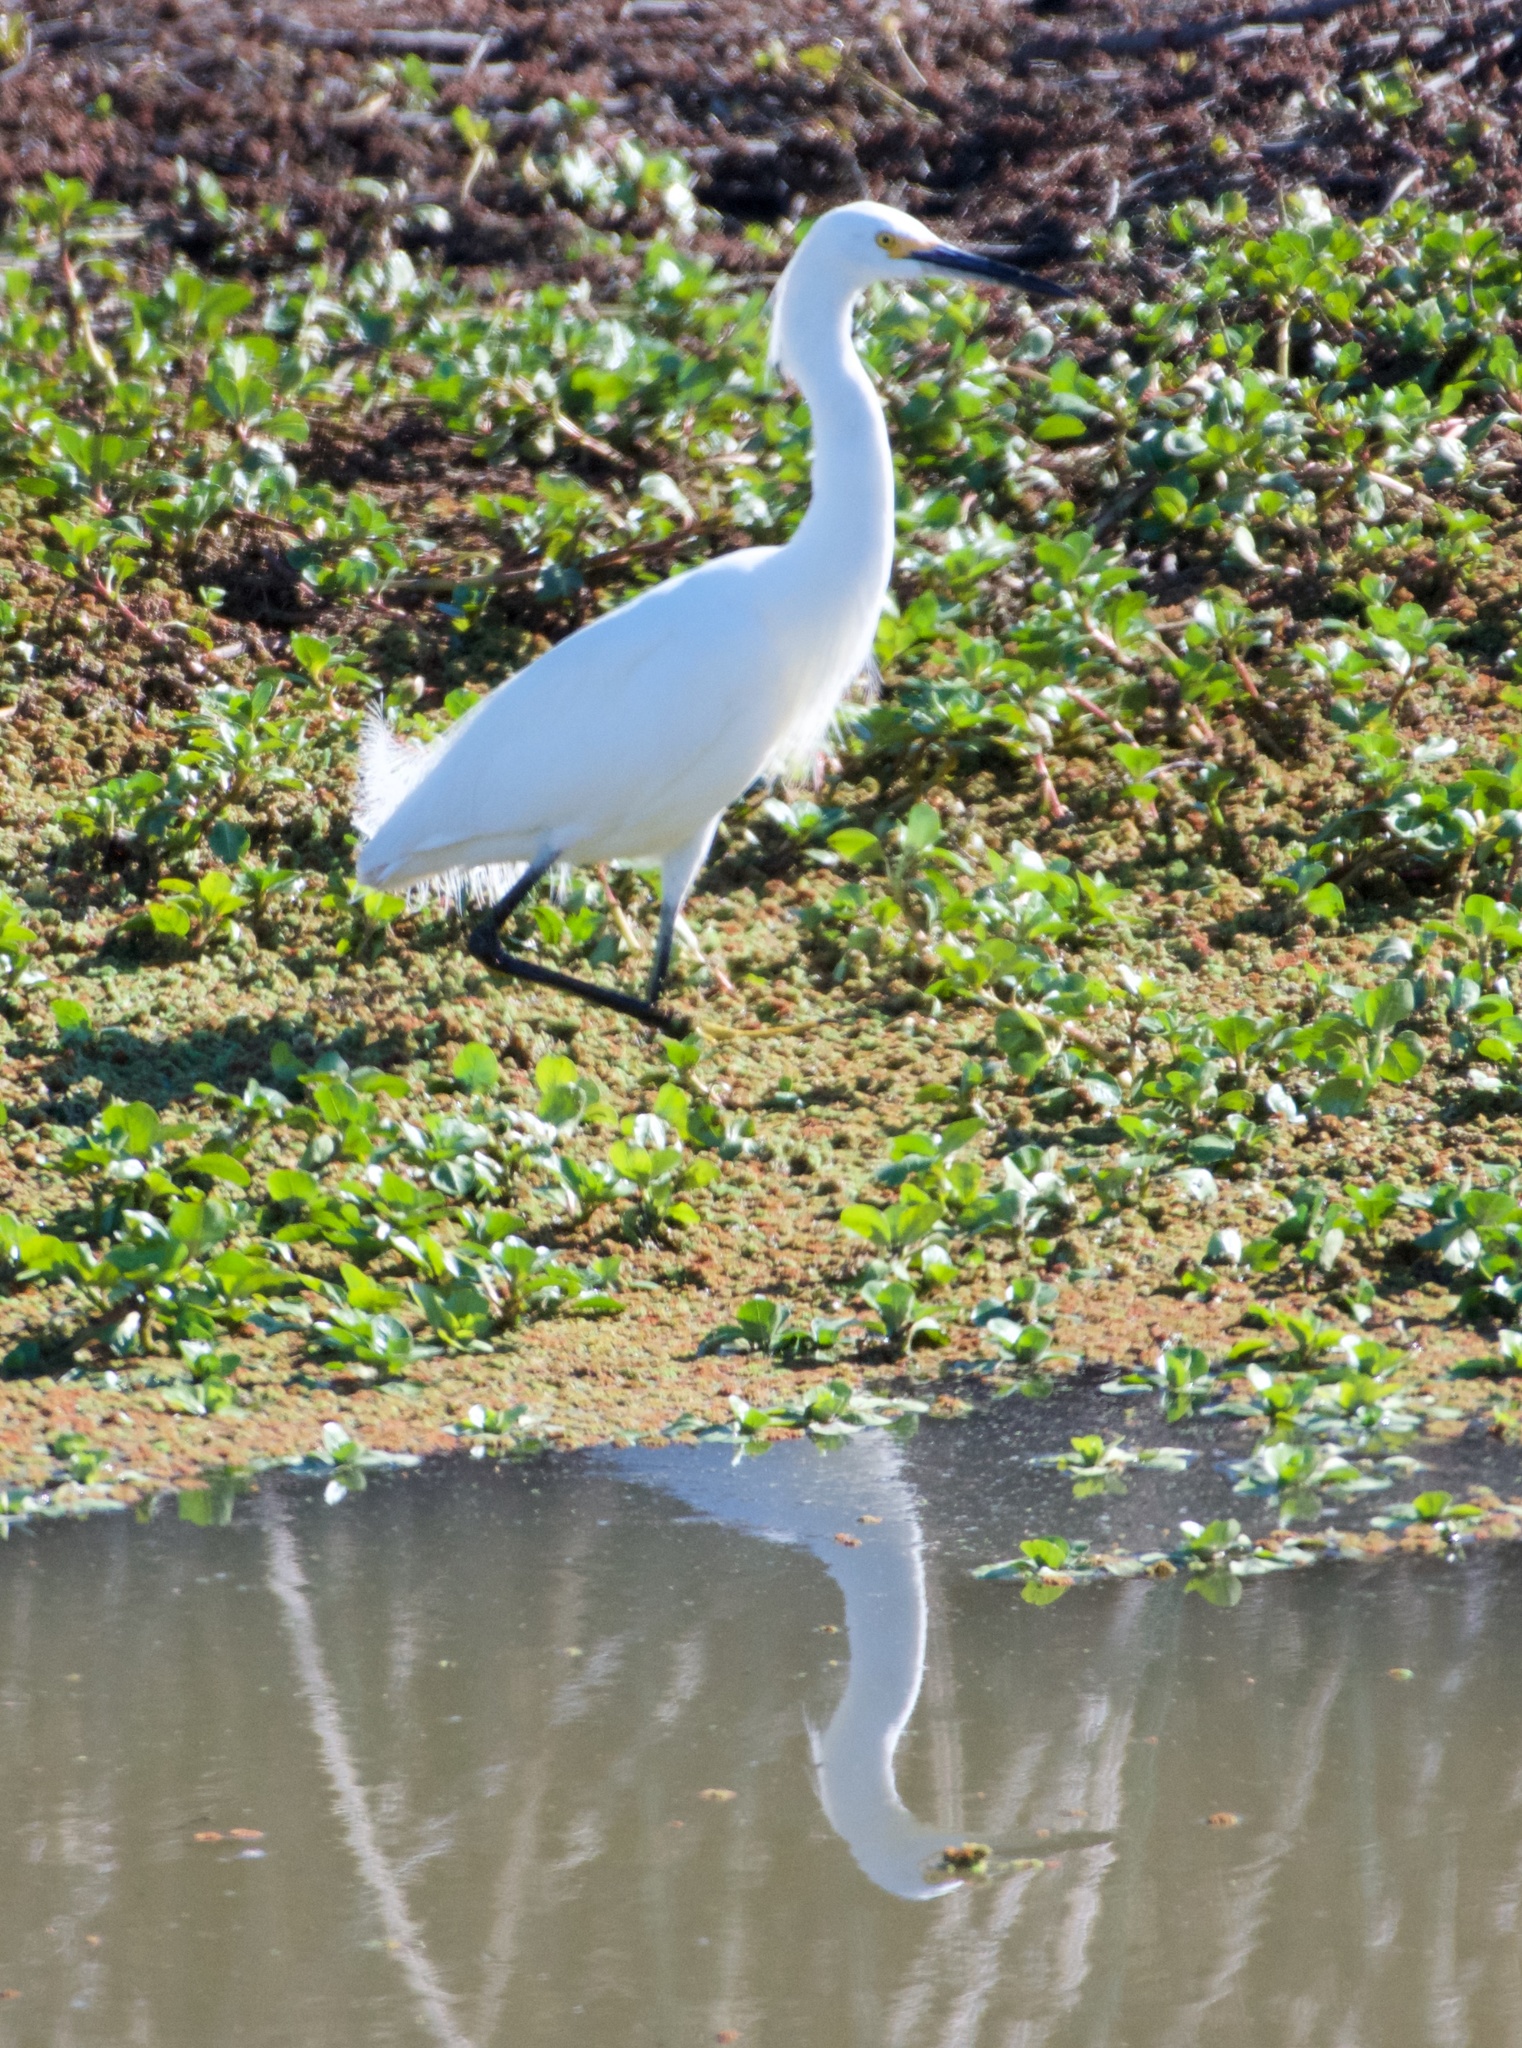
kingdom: Animalia
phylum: Chordata
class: Aves
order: Pelecaniformes
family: Ardeidae
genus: Egretta
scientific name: Egretta thula
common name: Snowy egret
